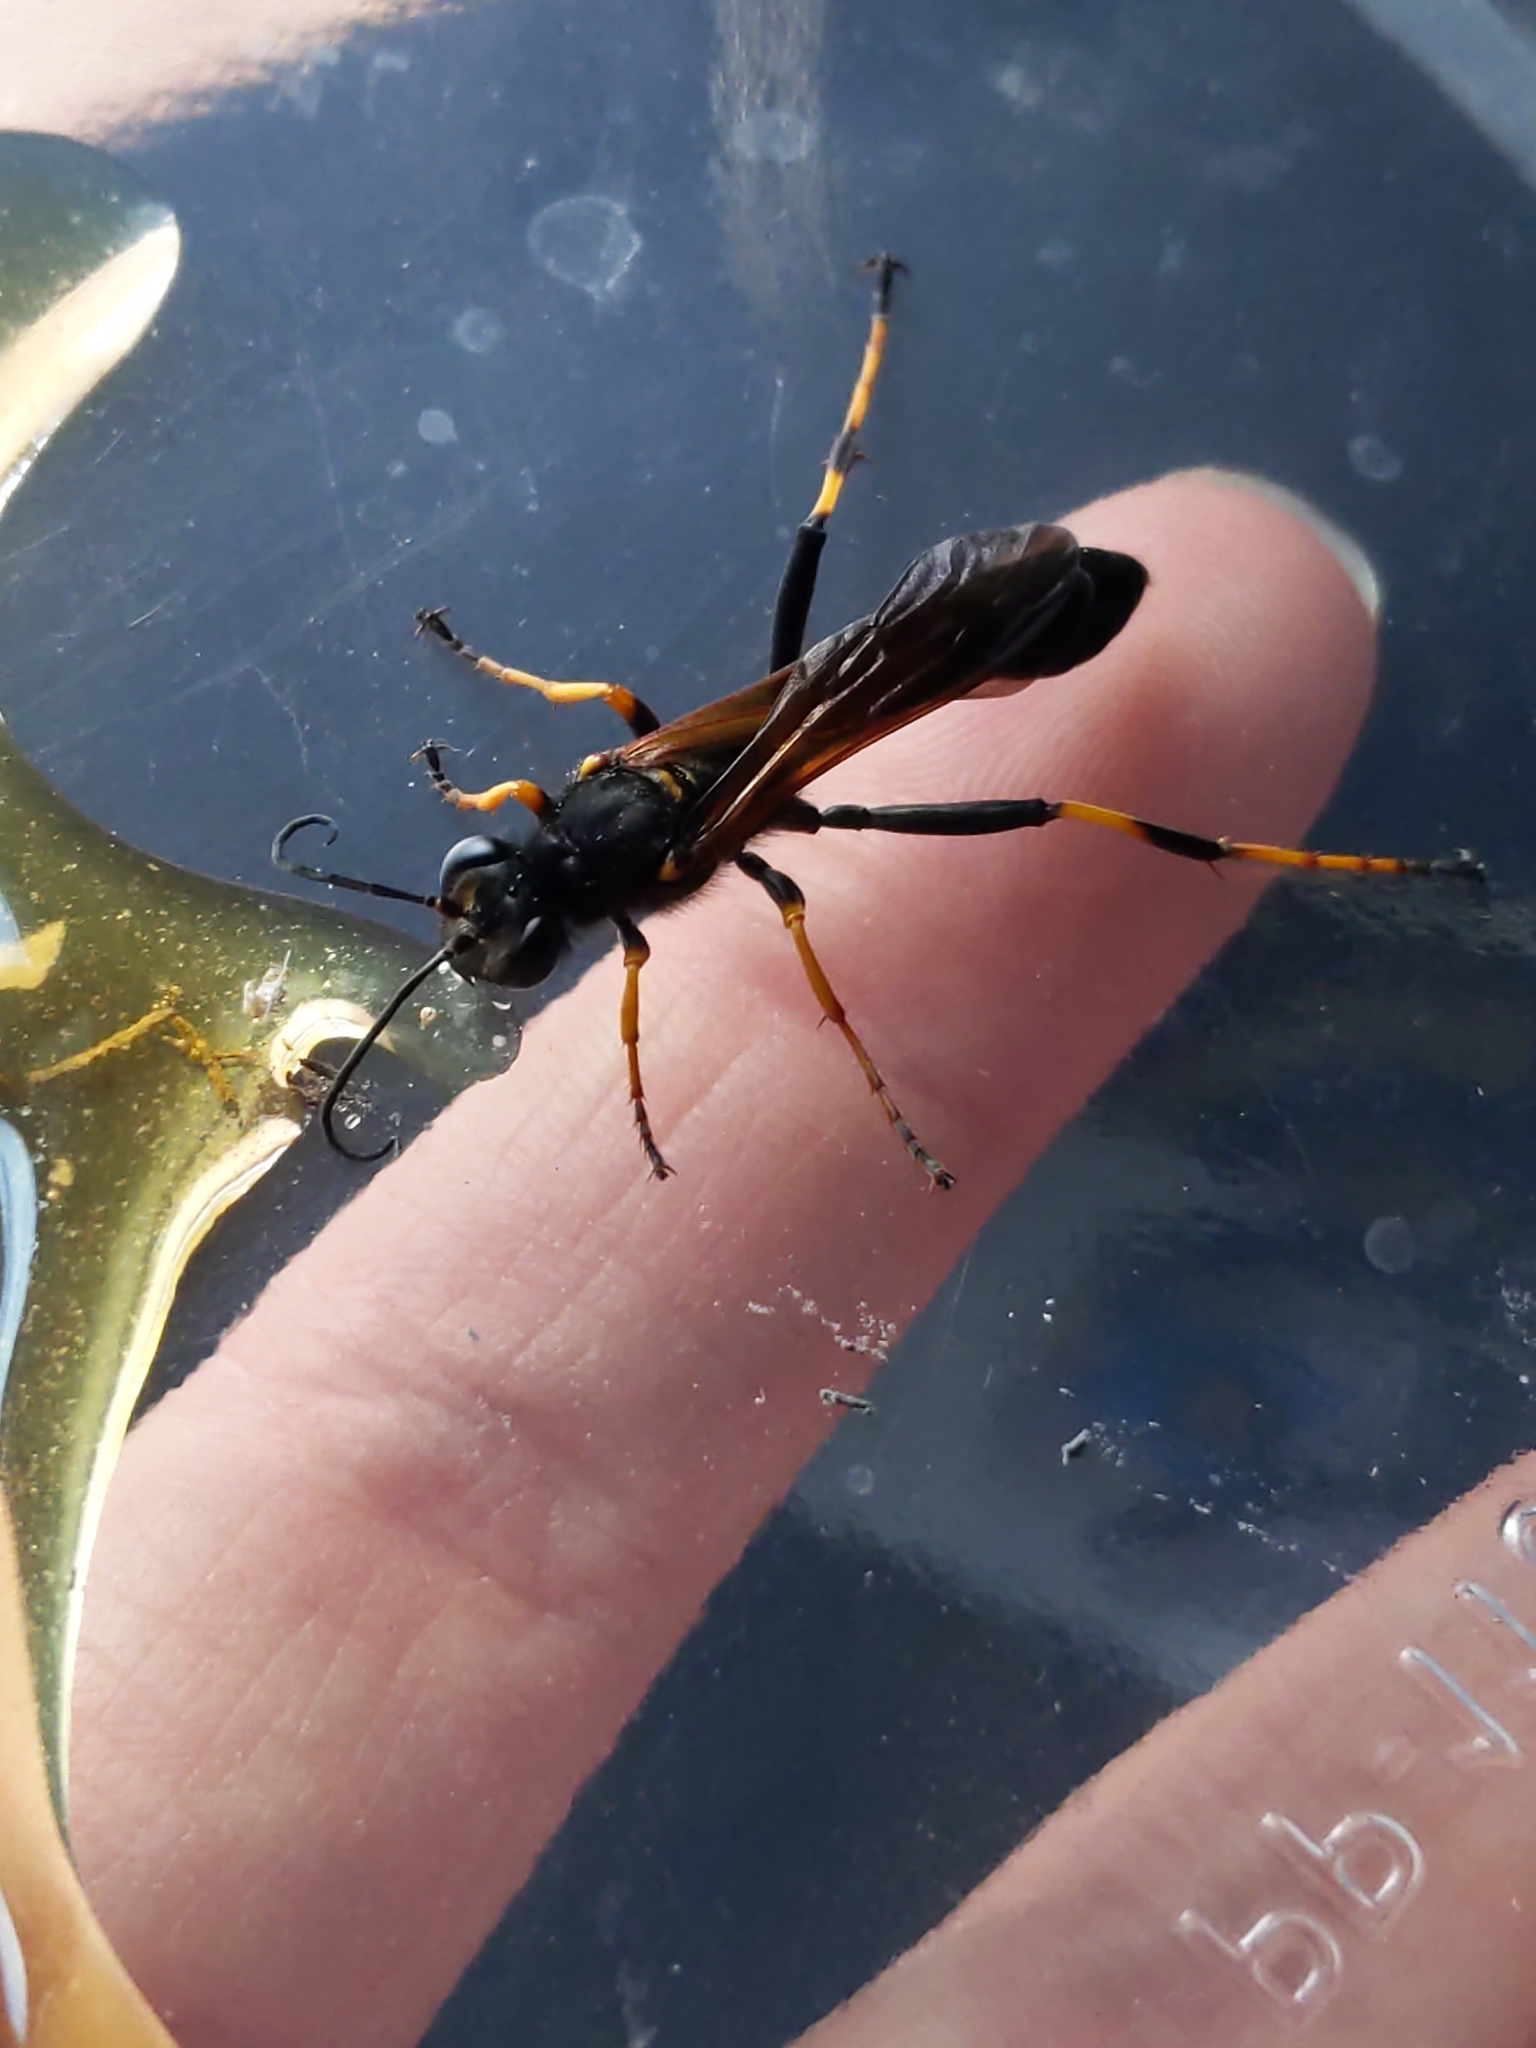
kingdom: Animalia
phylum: Arthropoda
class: Insecta
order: Hymenoptera
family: Sphecidae
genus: Sceliphron
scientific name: Sceliphron caementarium
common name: Mud dauber
